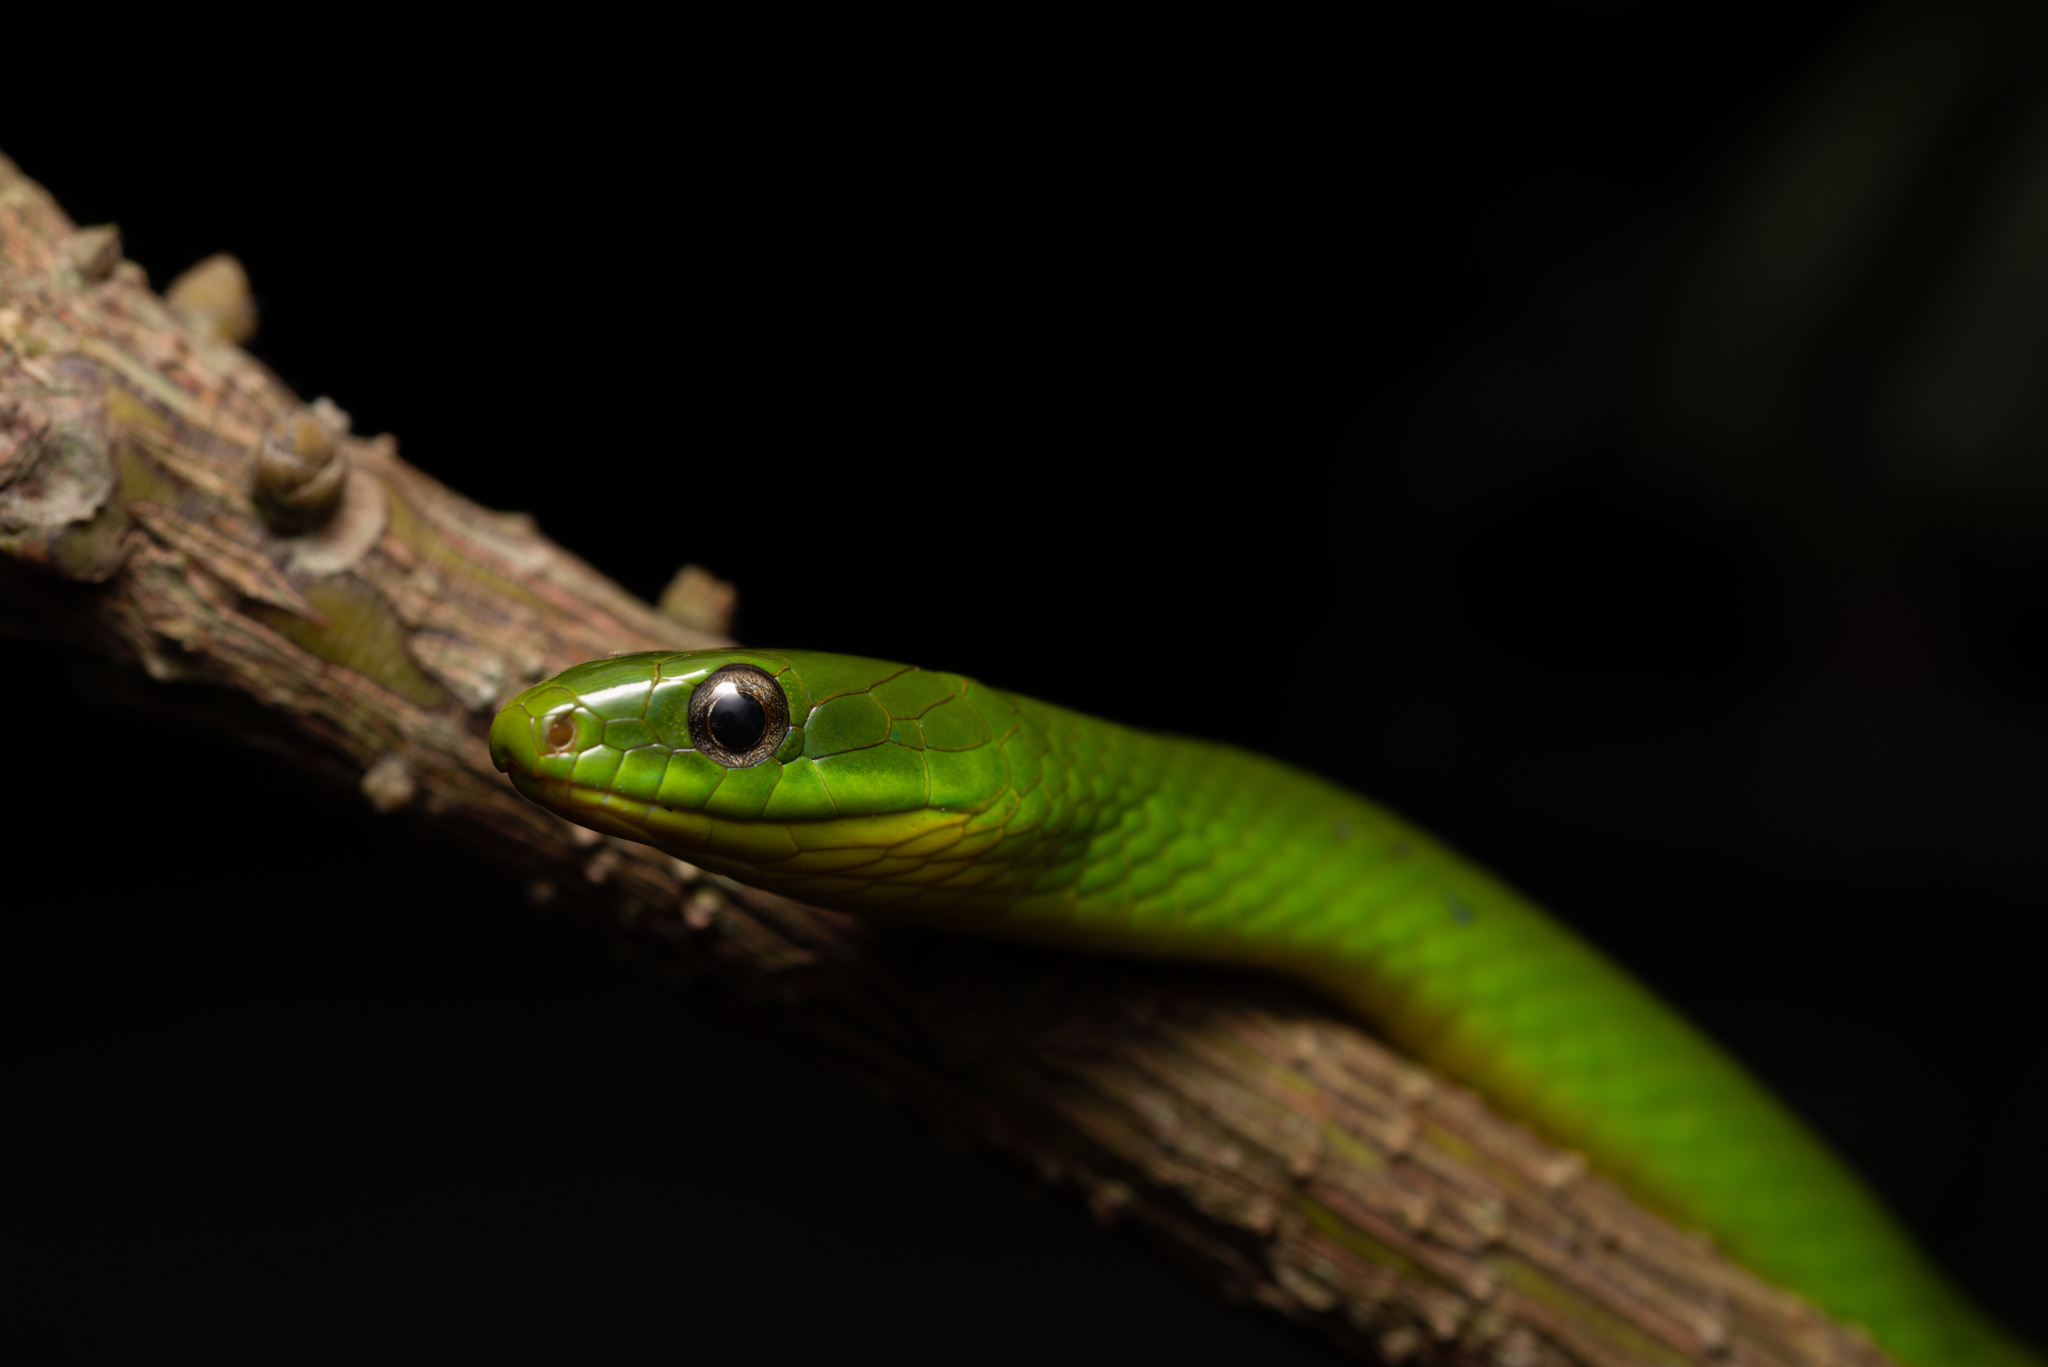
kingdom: Animalia
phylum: Chordata
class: Squamata
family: Colubridae
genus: Ptyas
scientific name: Ptyas major
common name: Chinese green snake
